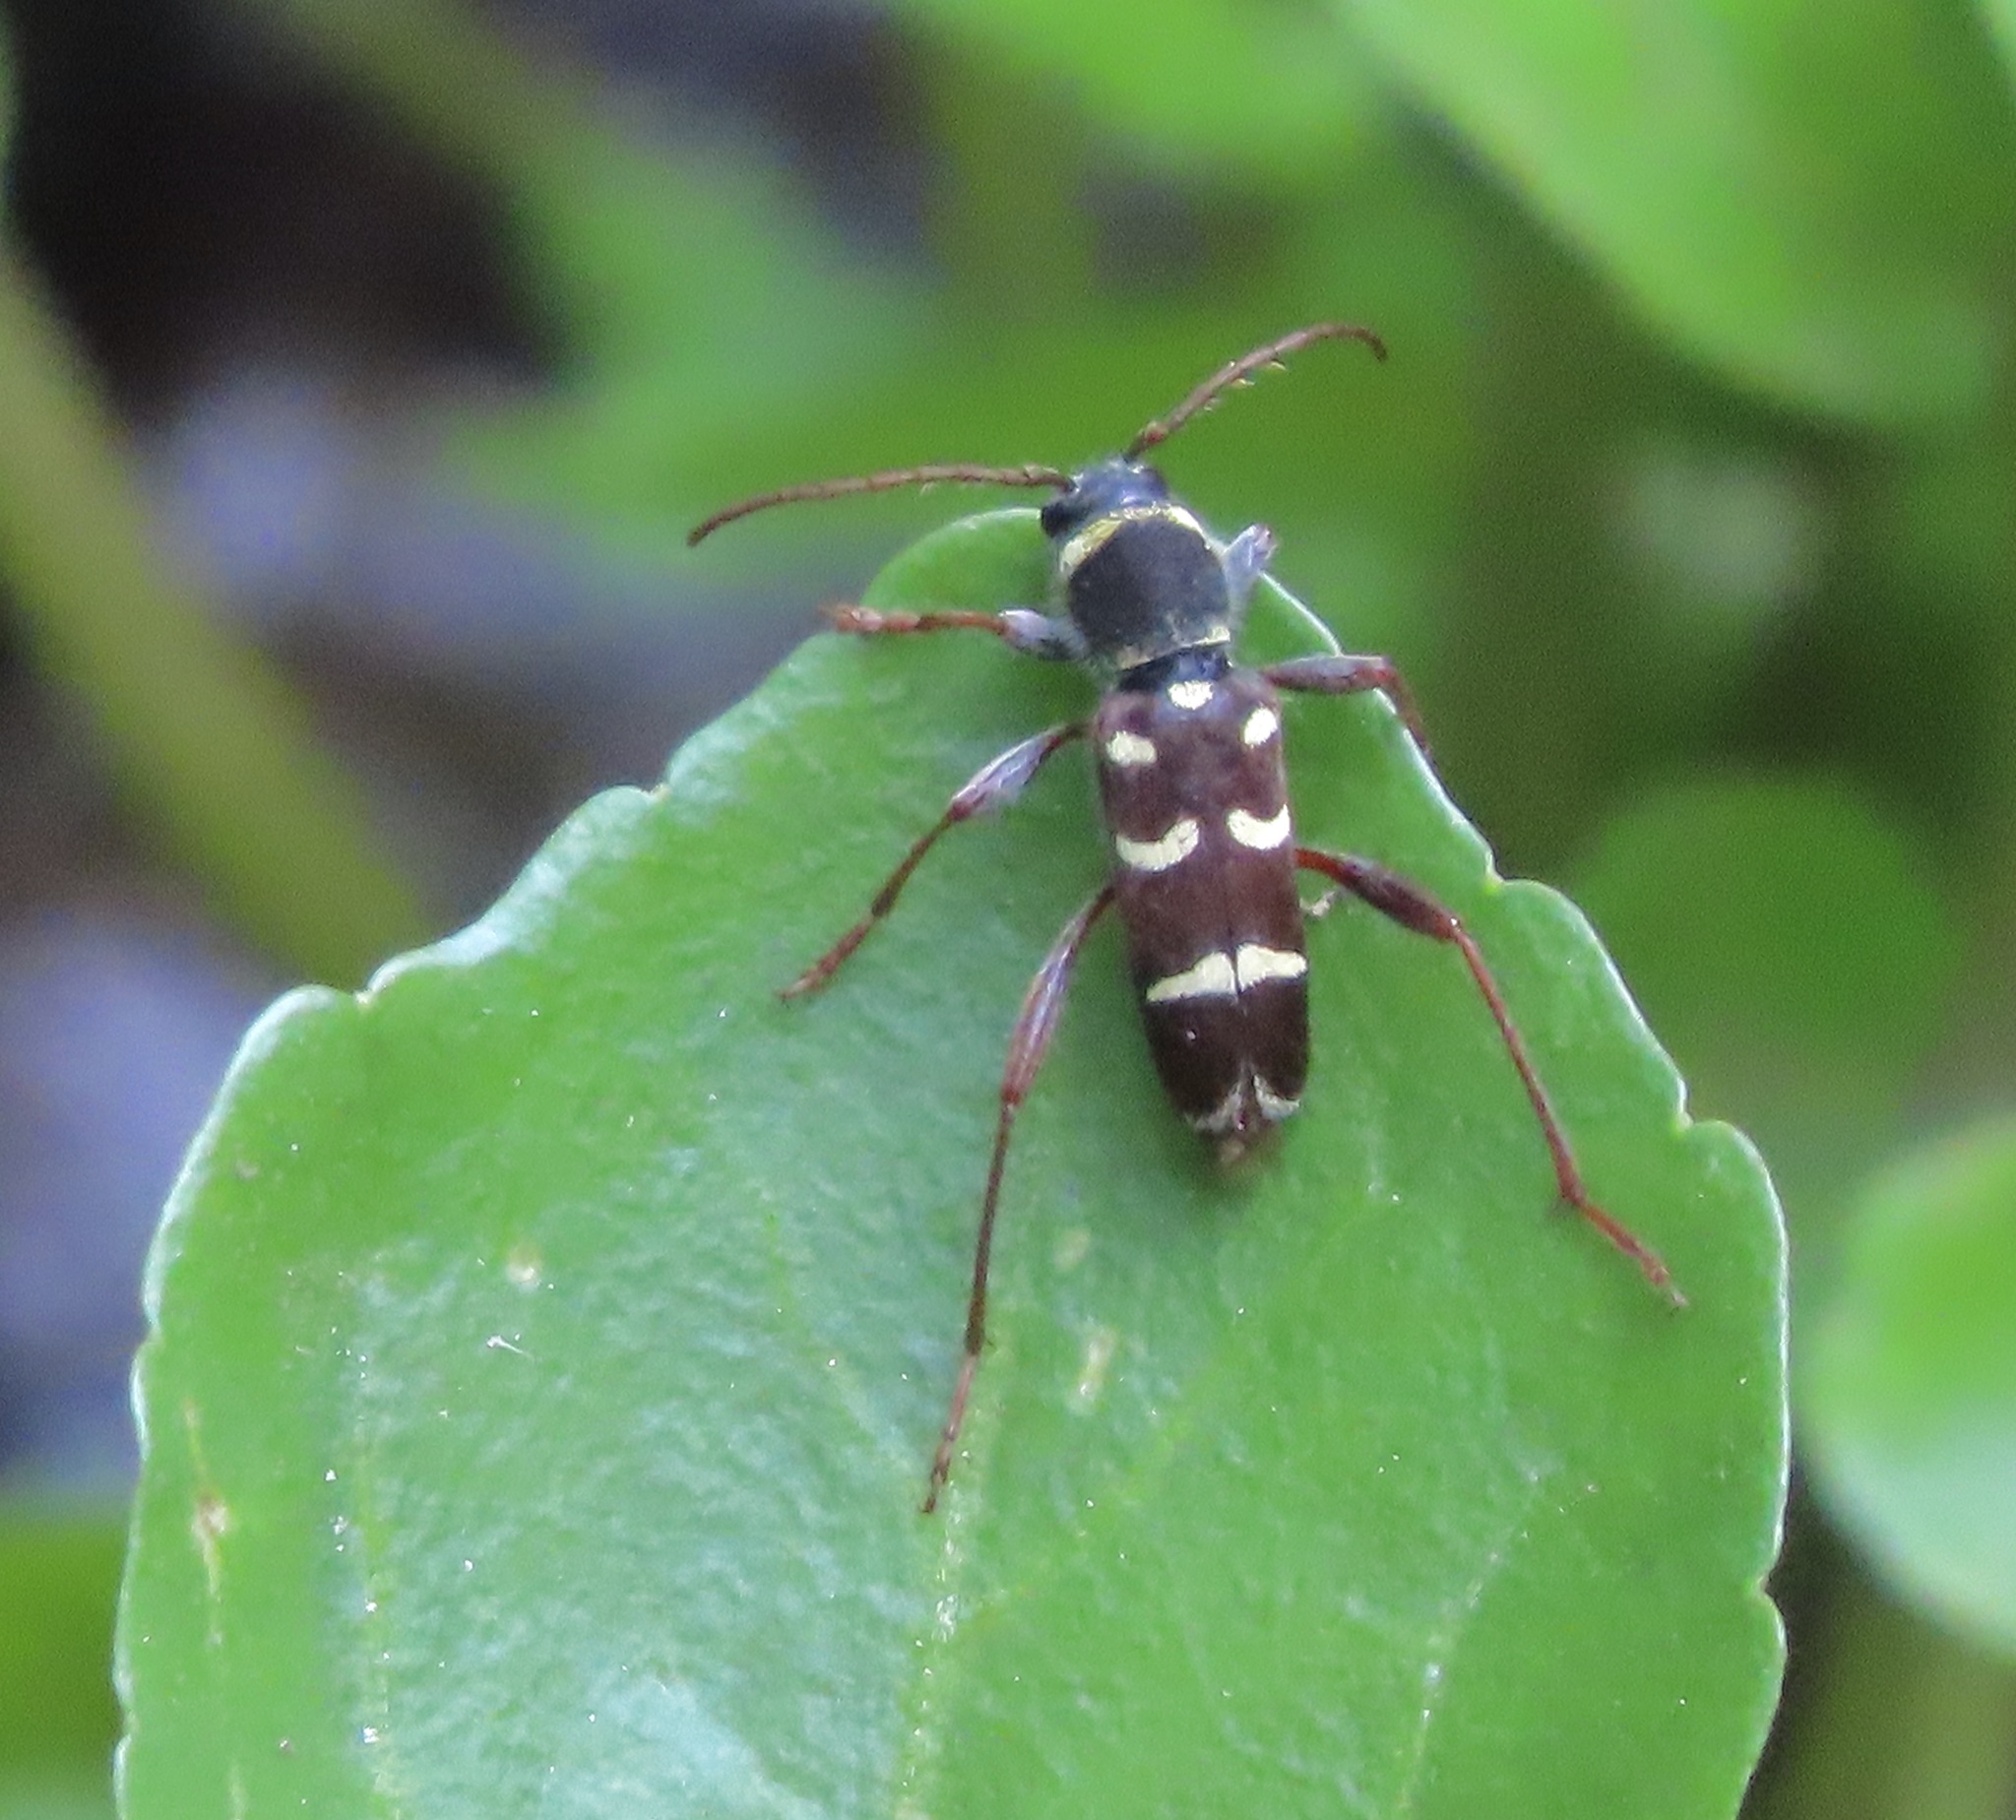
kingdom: Animalia
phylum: Arthropoda
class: Insecta
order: Coleoptera
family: Cerambycidae
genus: Clytus
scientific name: Clytus blaisdelli
